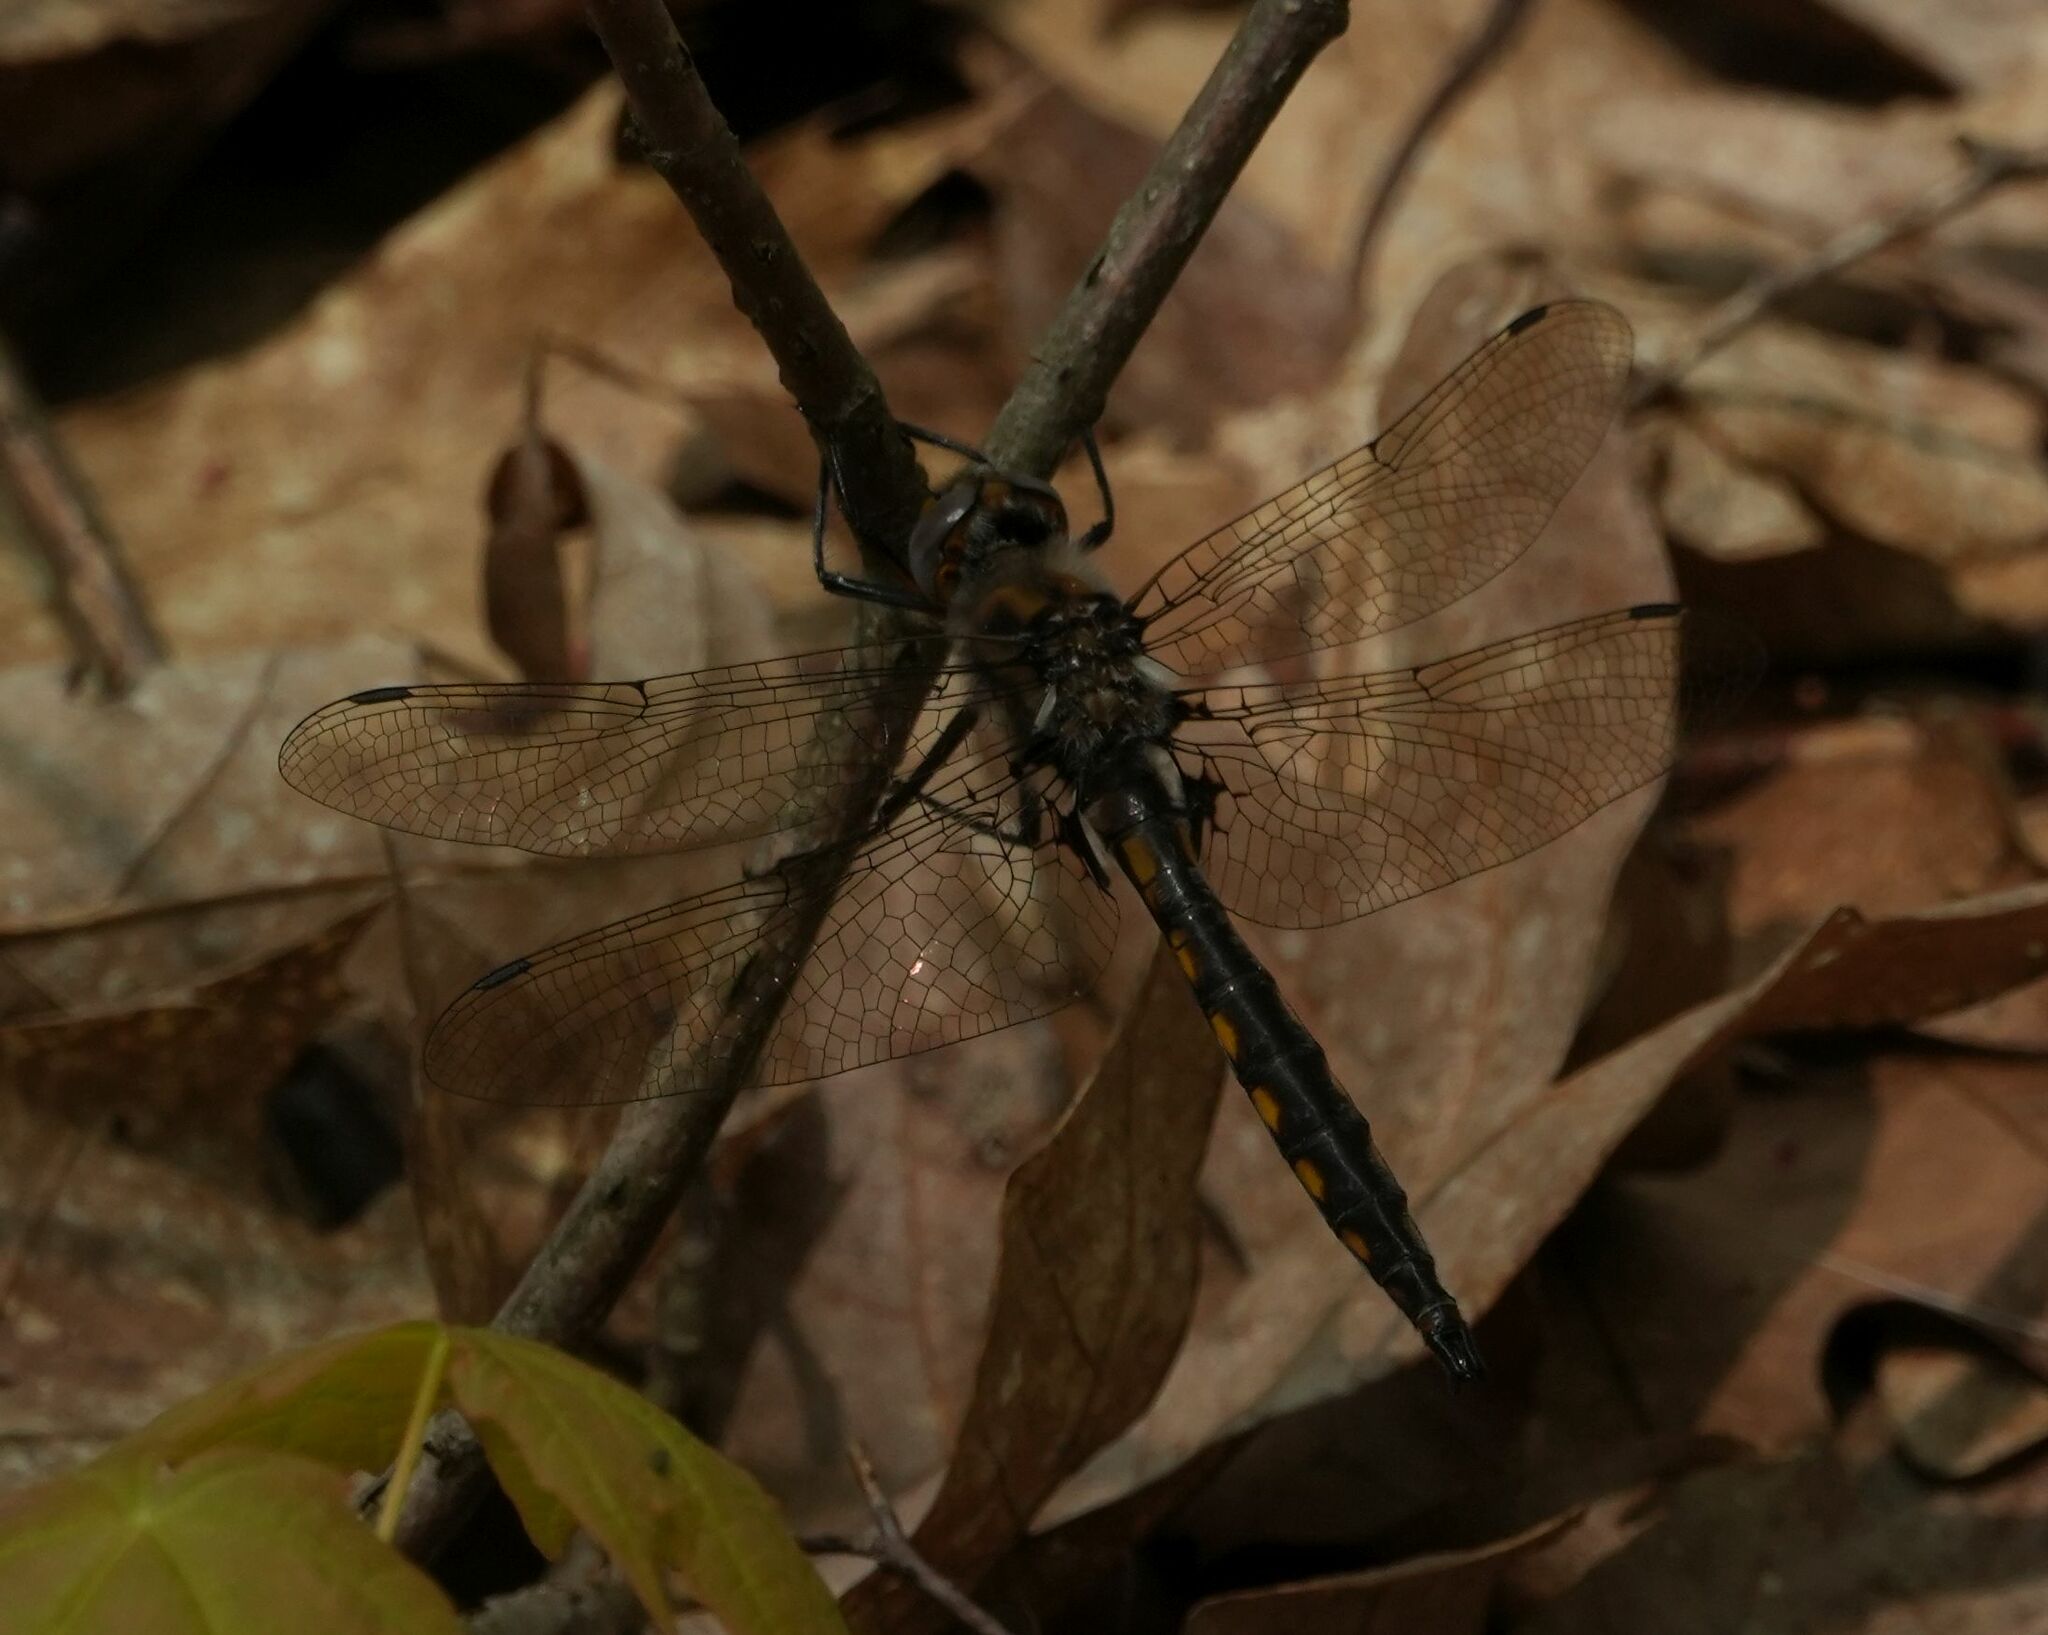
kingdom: Animalia
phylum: Arthropoda
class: Insecta
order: Odonata
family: Corduliidae
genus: Epitheca
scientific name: Epitheca canis
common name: Beaverpond baskettail
